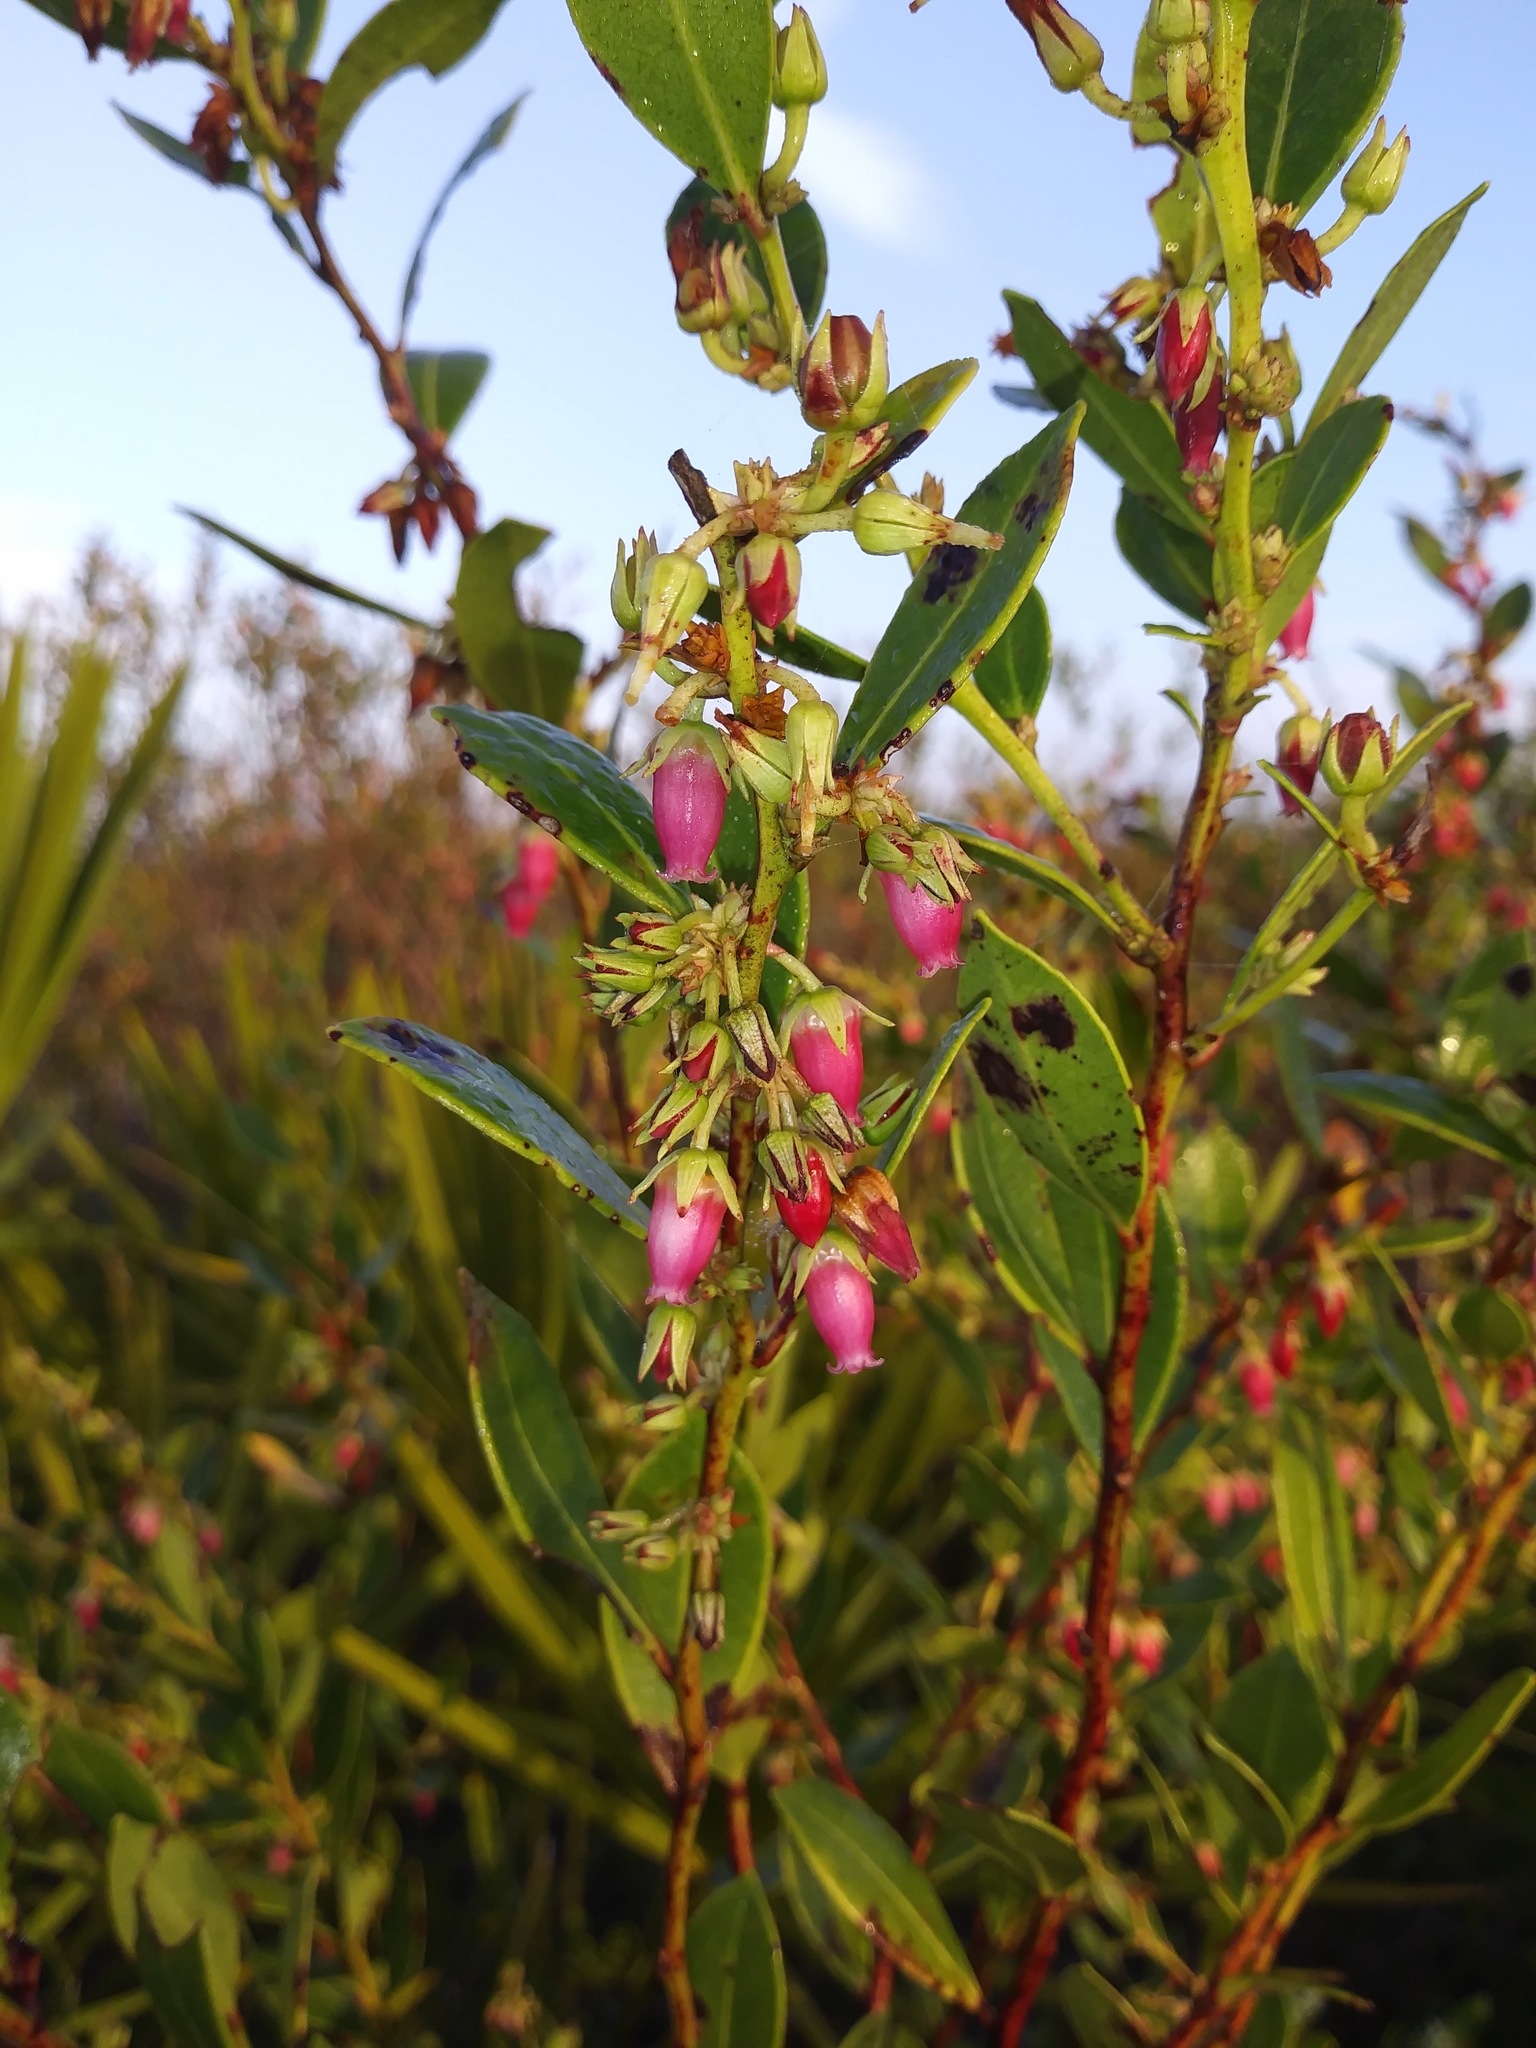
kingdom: Plantae
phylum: Tracheophyta
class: Magnoliopsida
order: Ericales
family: Ericaceae
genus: Lyonia
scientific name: Lyonia lucida
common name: Fetterbush
